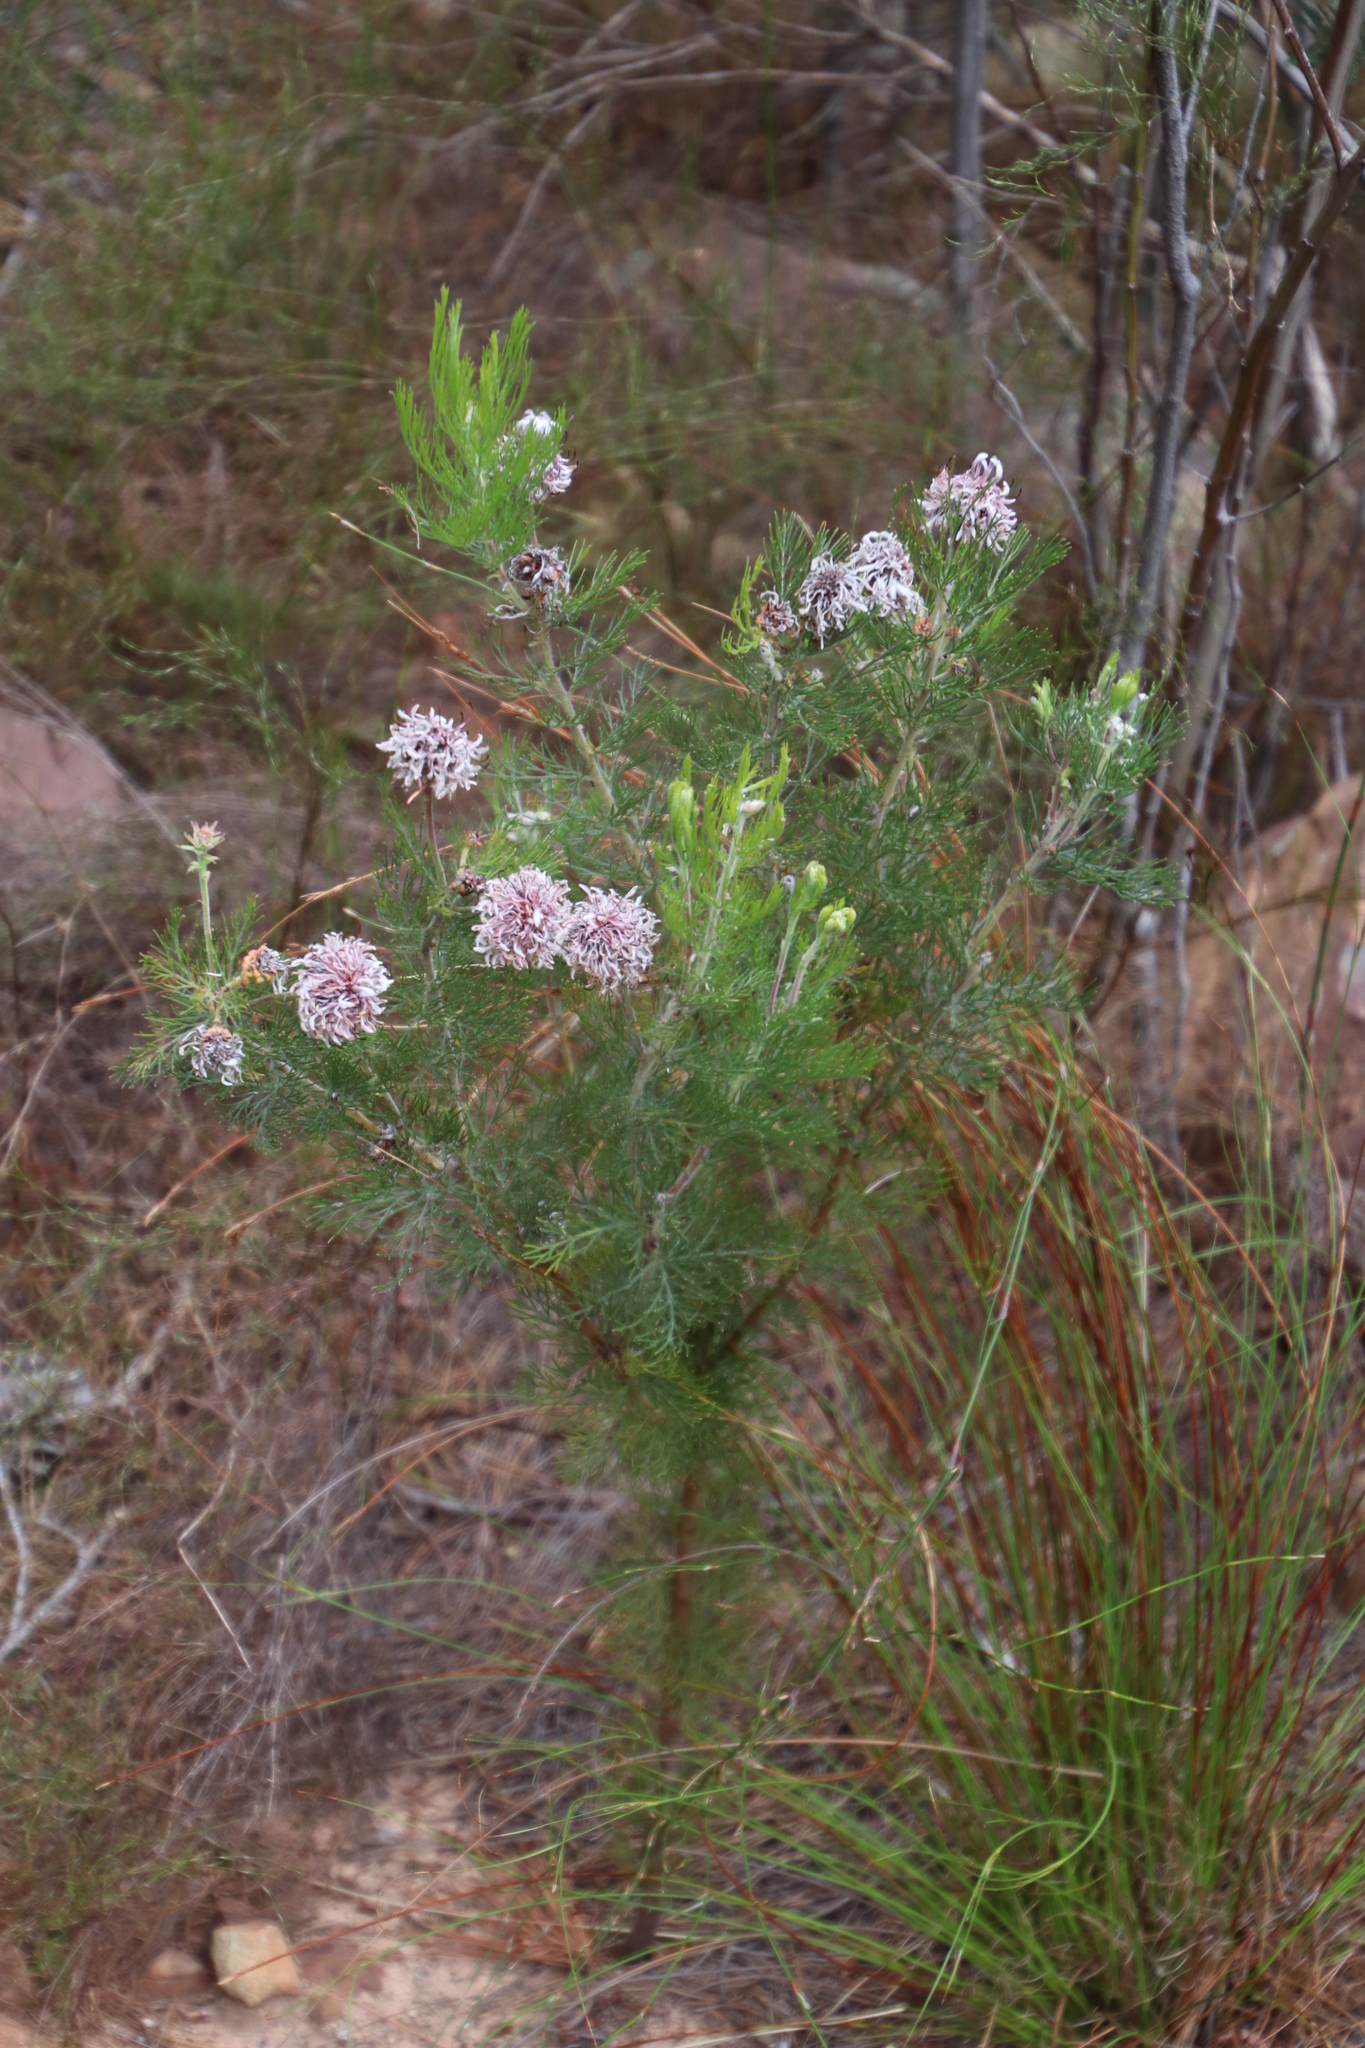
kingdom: Plantae
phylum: Tracheophyta
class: Magnoliopsida
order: Proteales
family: Proteaceae
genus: Serruria
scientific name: Serruria acrocarpa
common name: Common rootstock spiderhead
